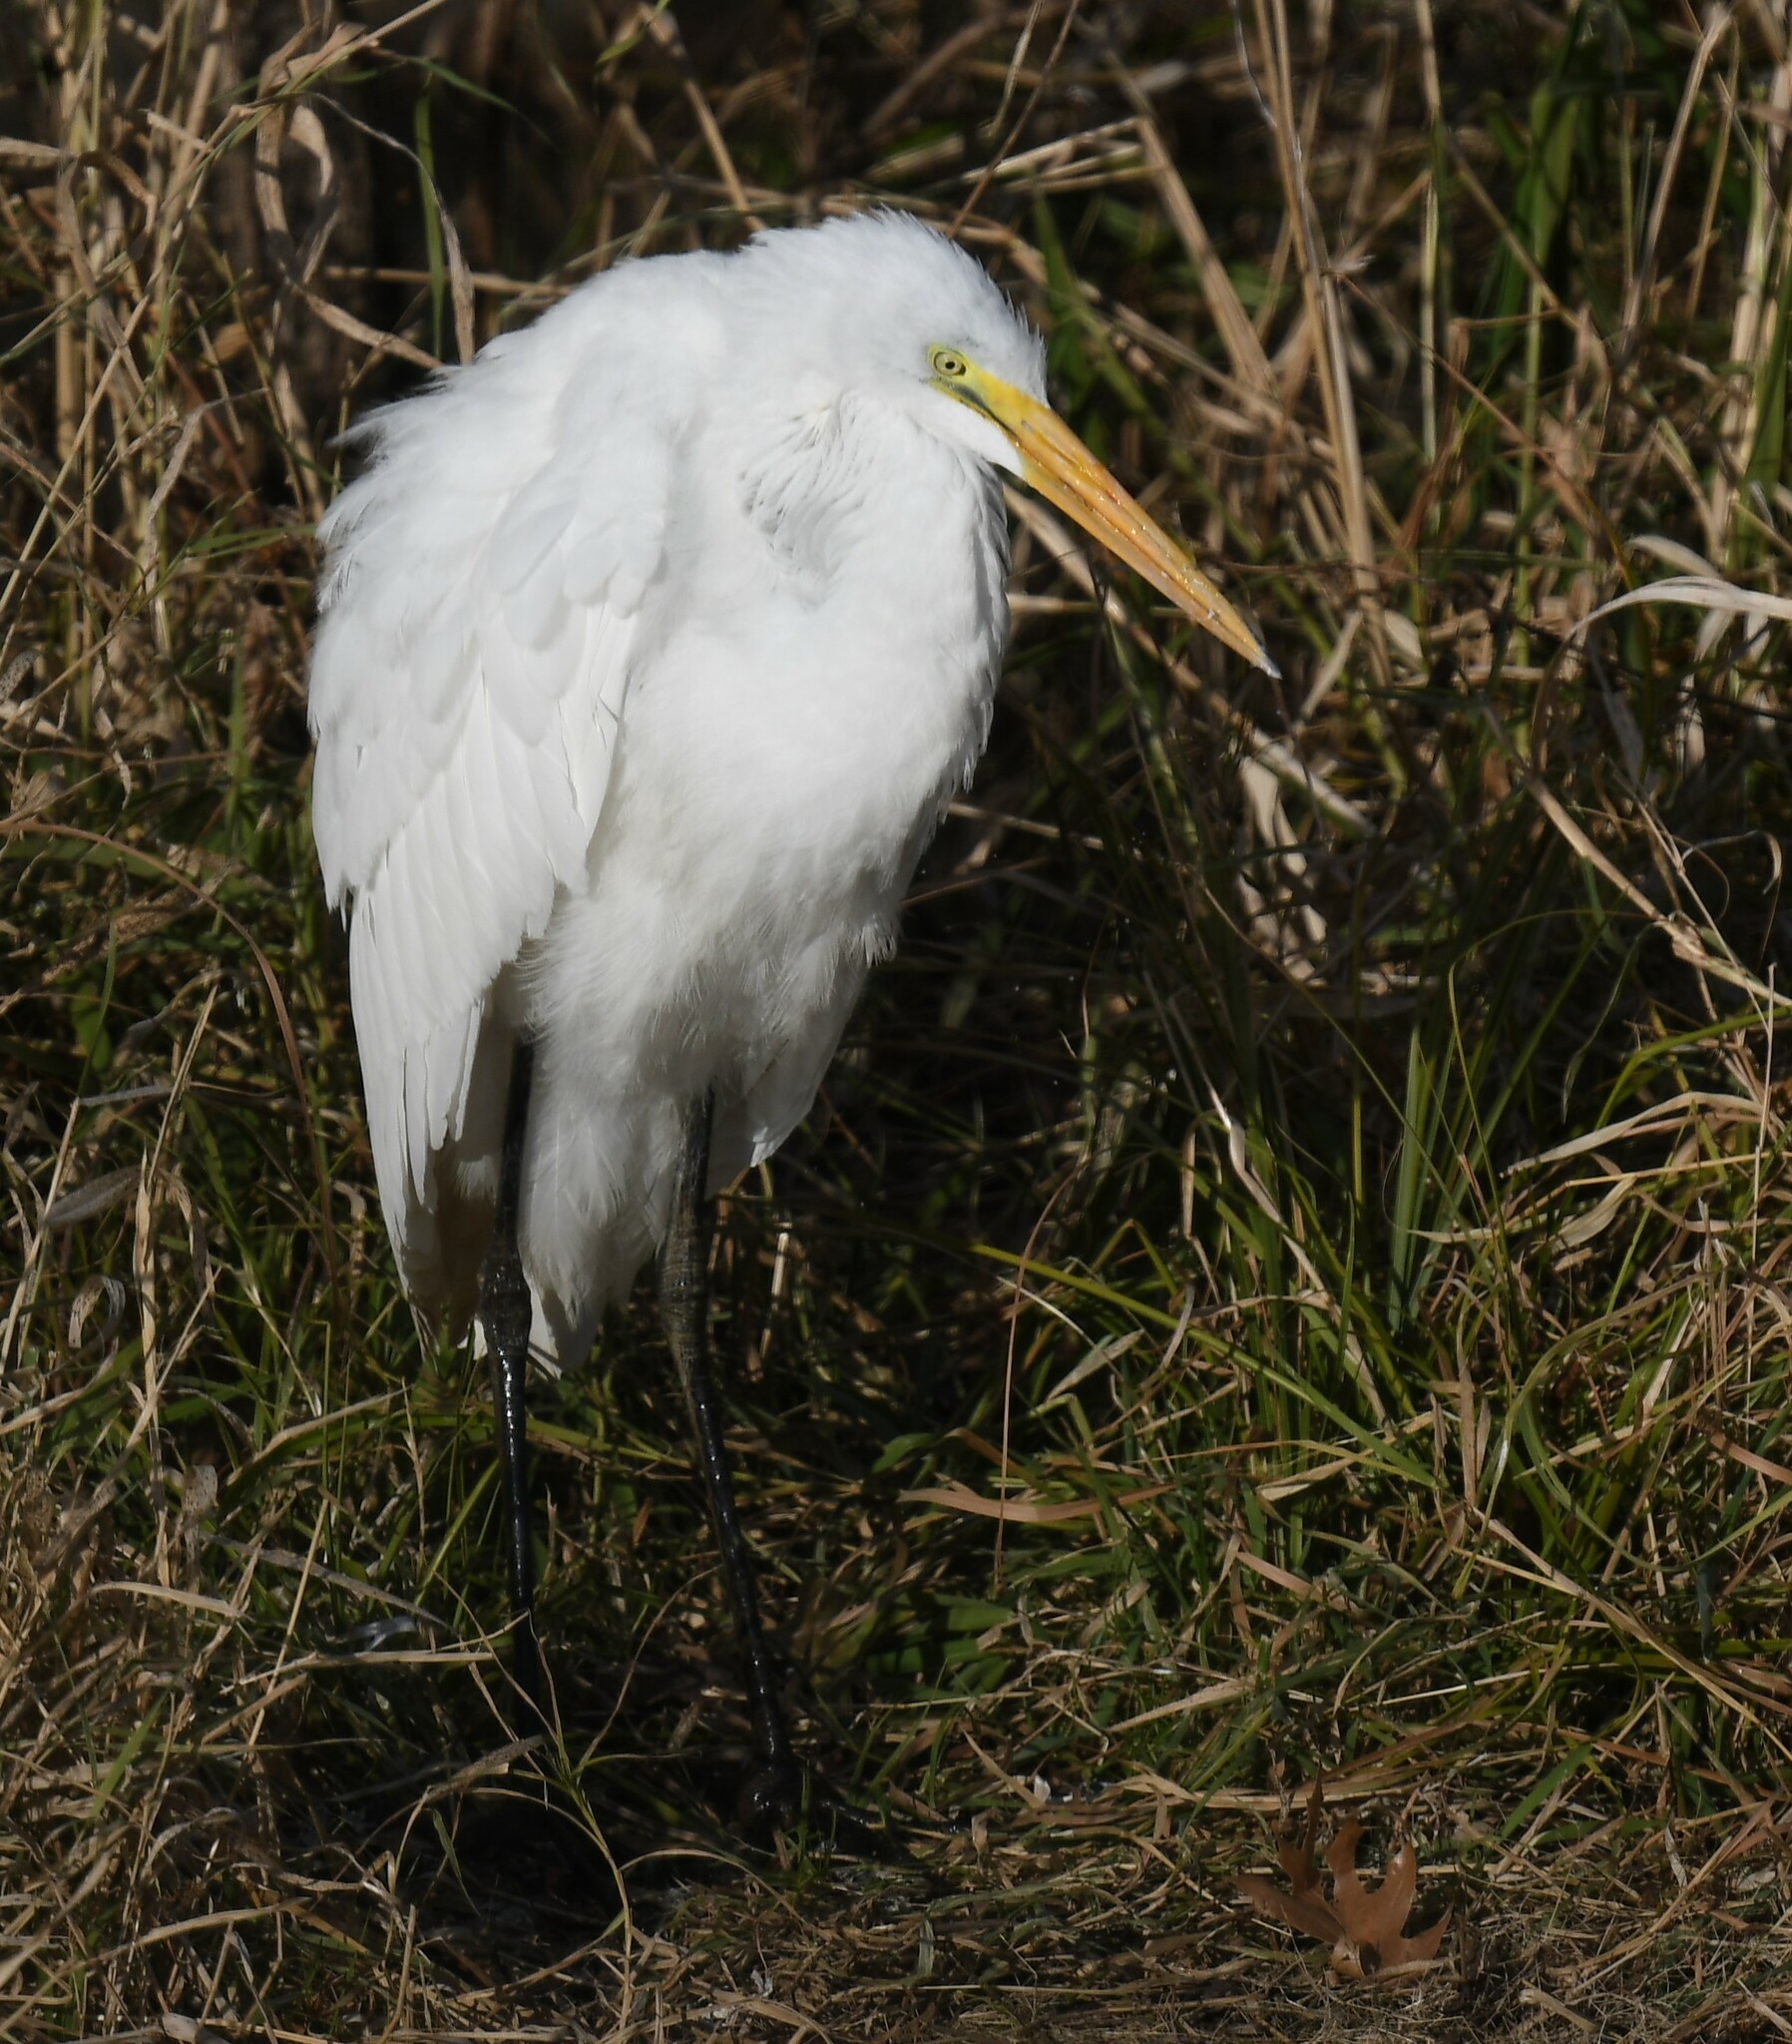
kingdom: Animalia
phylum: Chordata
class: Aves
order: Pelecaniformes
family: Ardeidae
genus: Ardea
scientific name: Ardea alba
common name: Great egret
